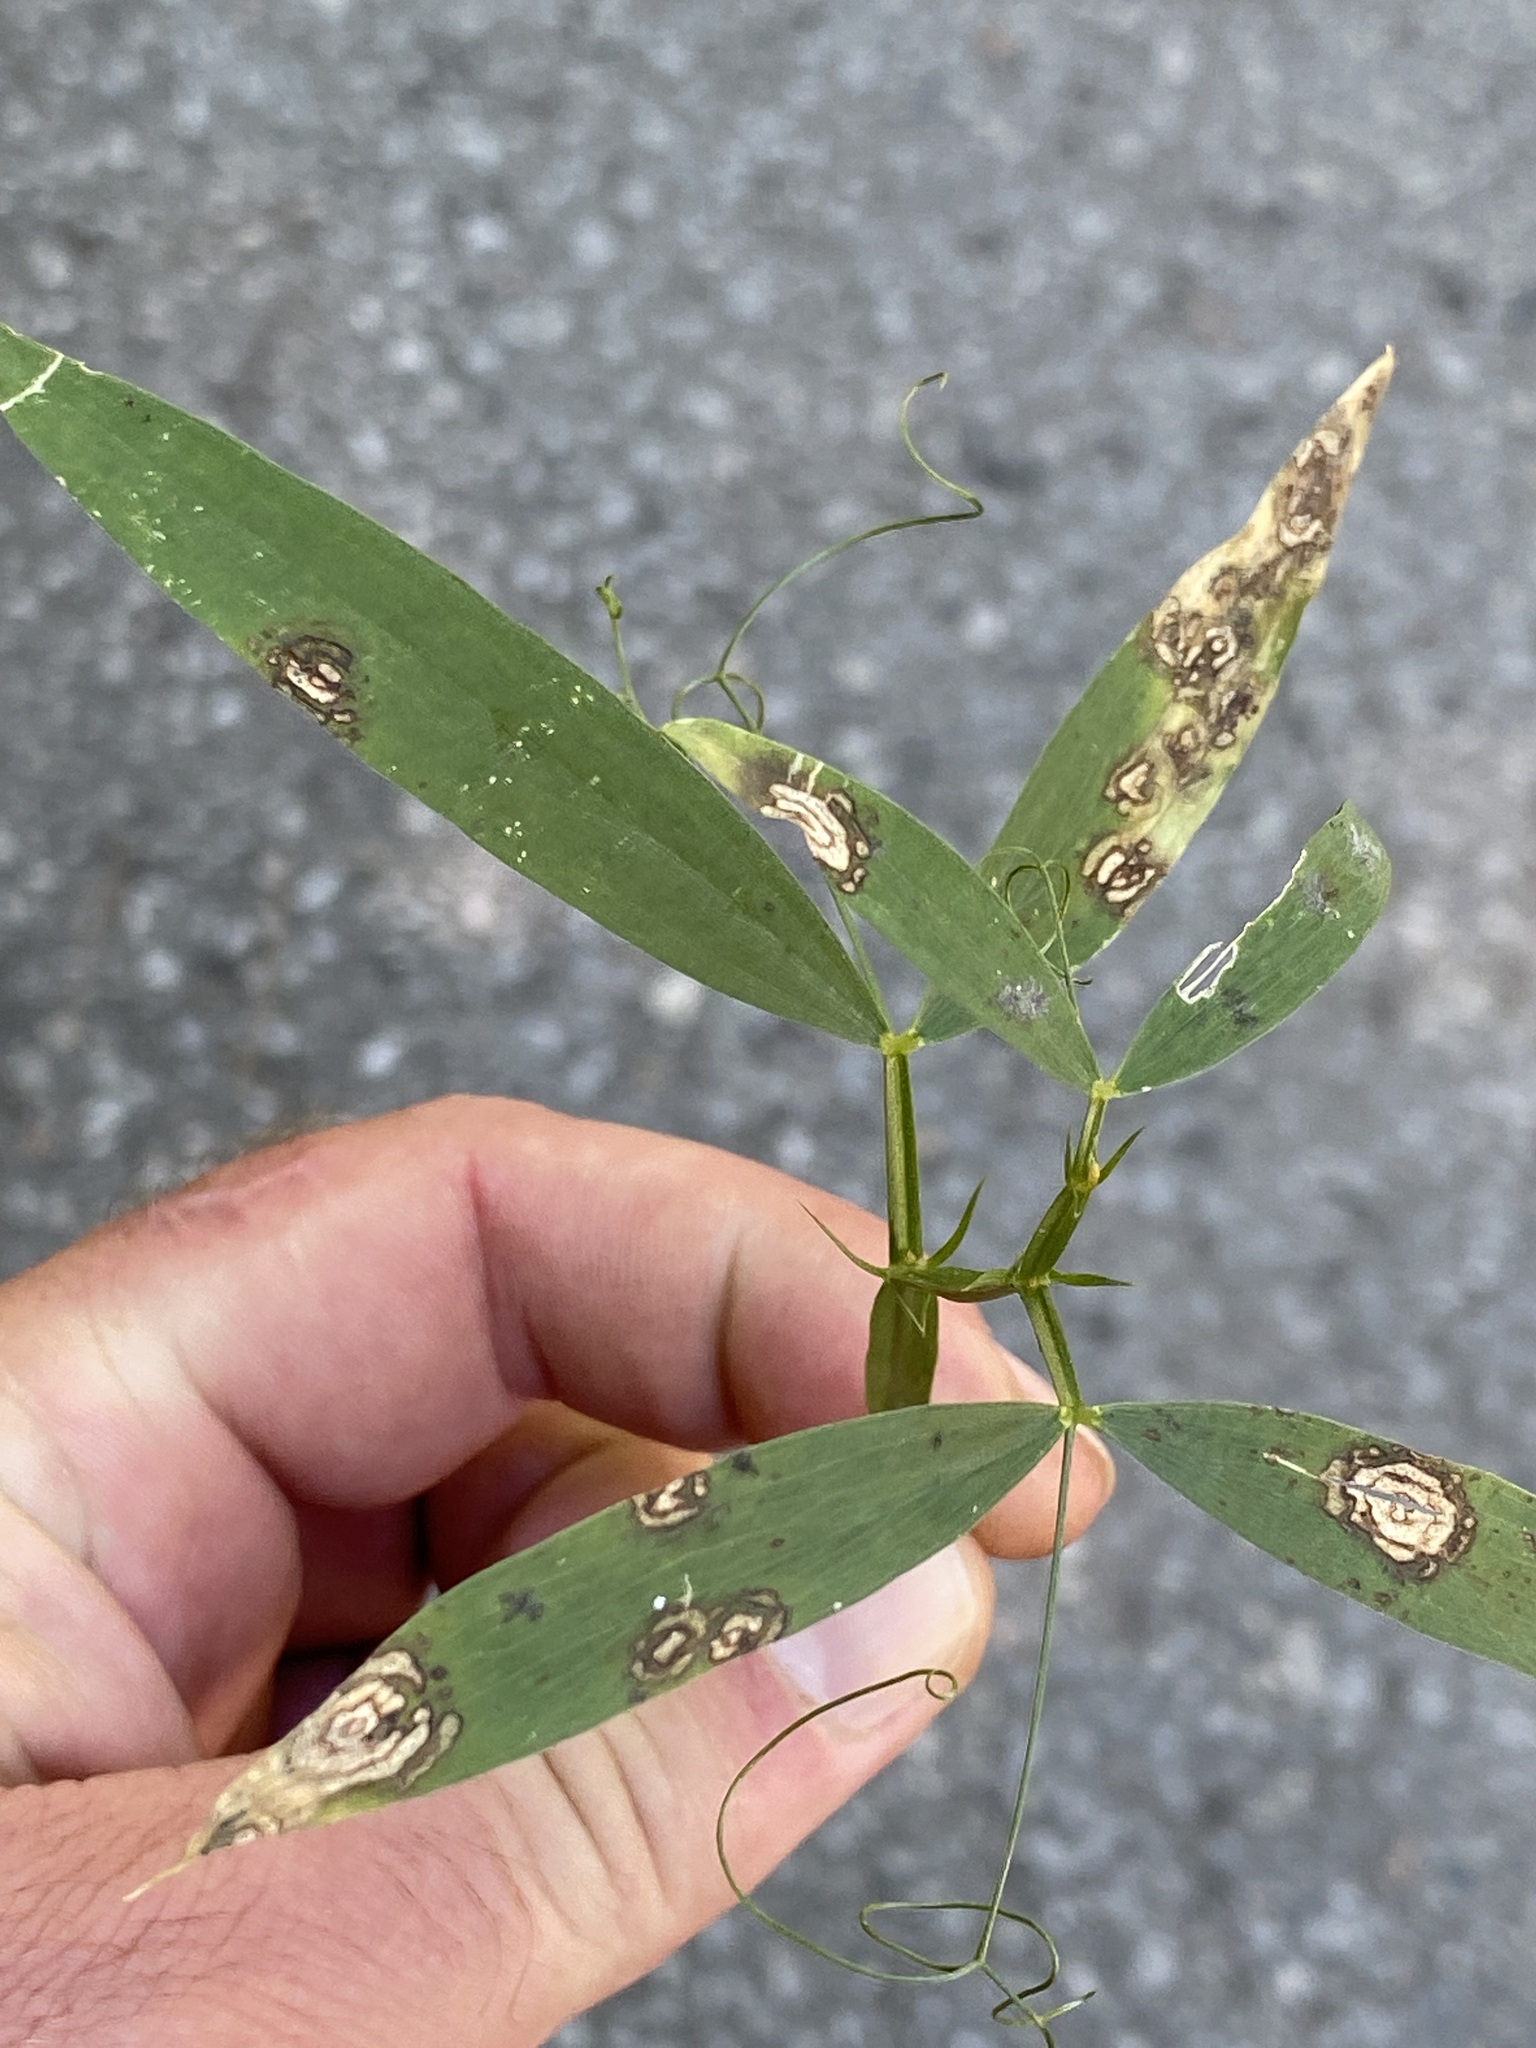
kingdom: Plantae
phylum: Tracheophyta
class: Magnoliopsida
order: Fabales
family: Fabaceae
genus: Lathyrus
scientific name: Lathyrus sylvestris
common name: Flat pea
